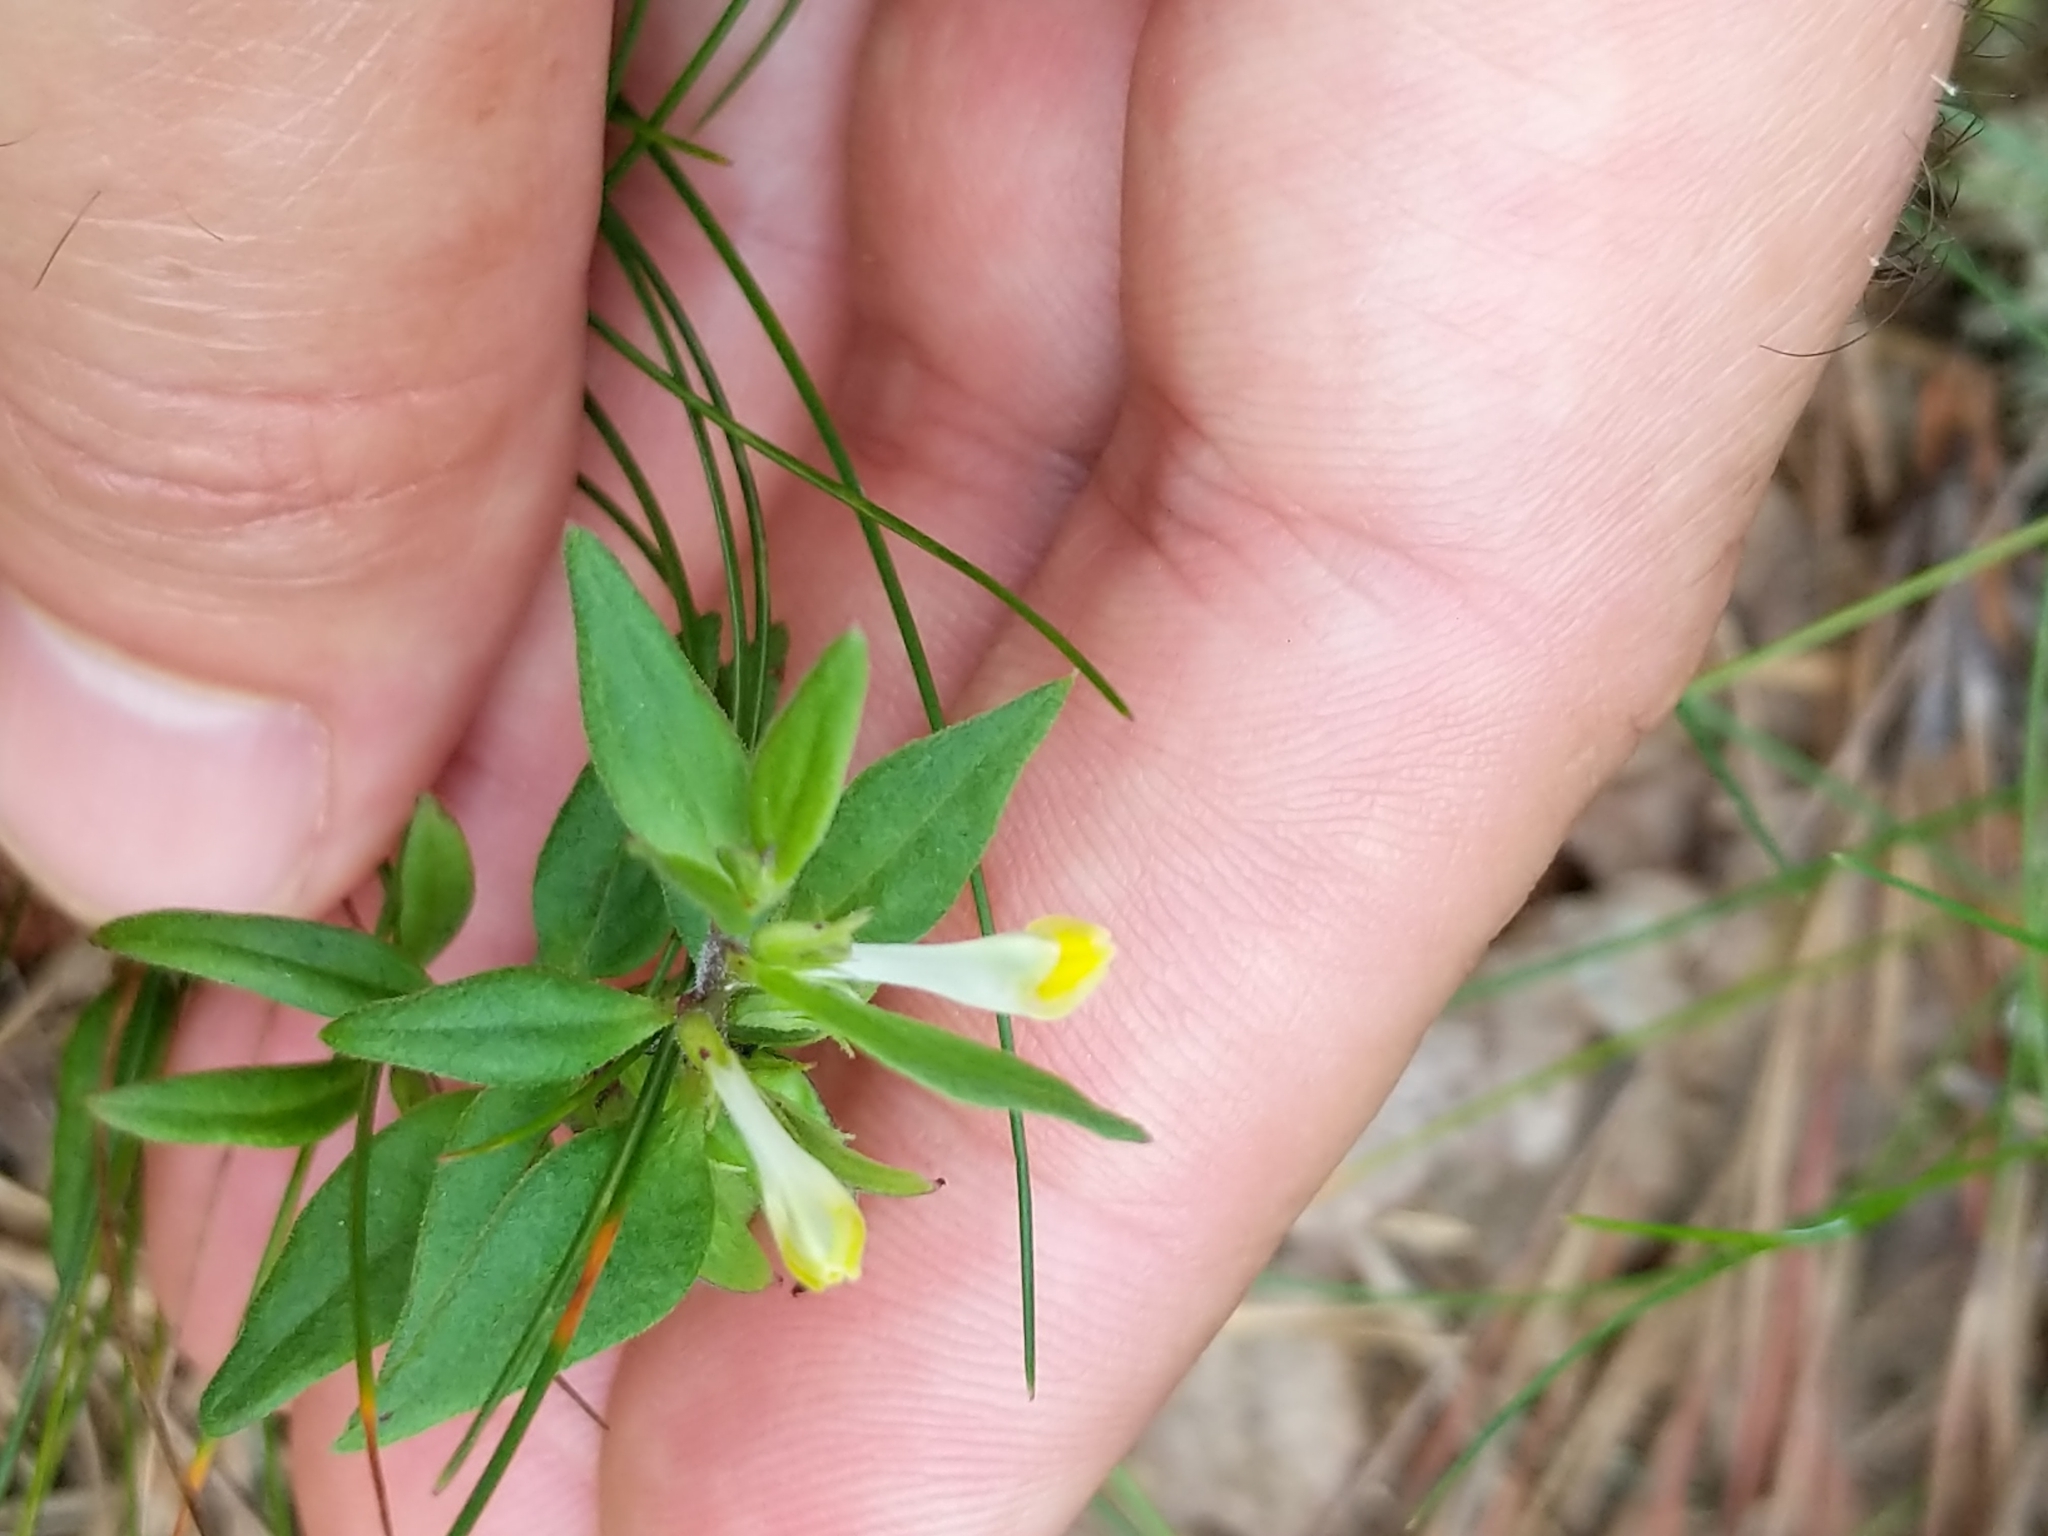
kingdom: Plantae
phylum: Tracheophyta
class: Magnoliopsida
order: Lamiales
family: Orobanchaceae
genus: Melampyrum
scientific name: Melampyrum lineare
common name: American cow-wheat
